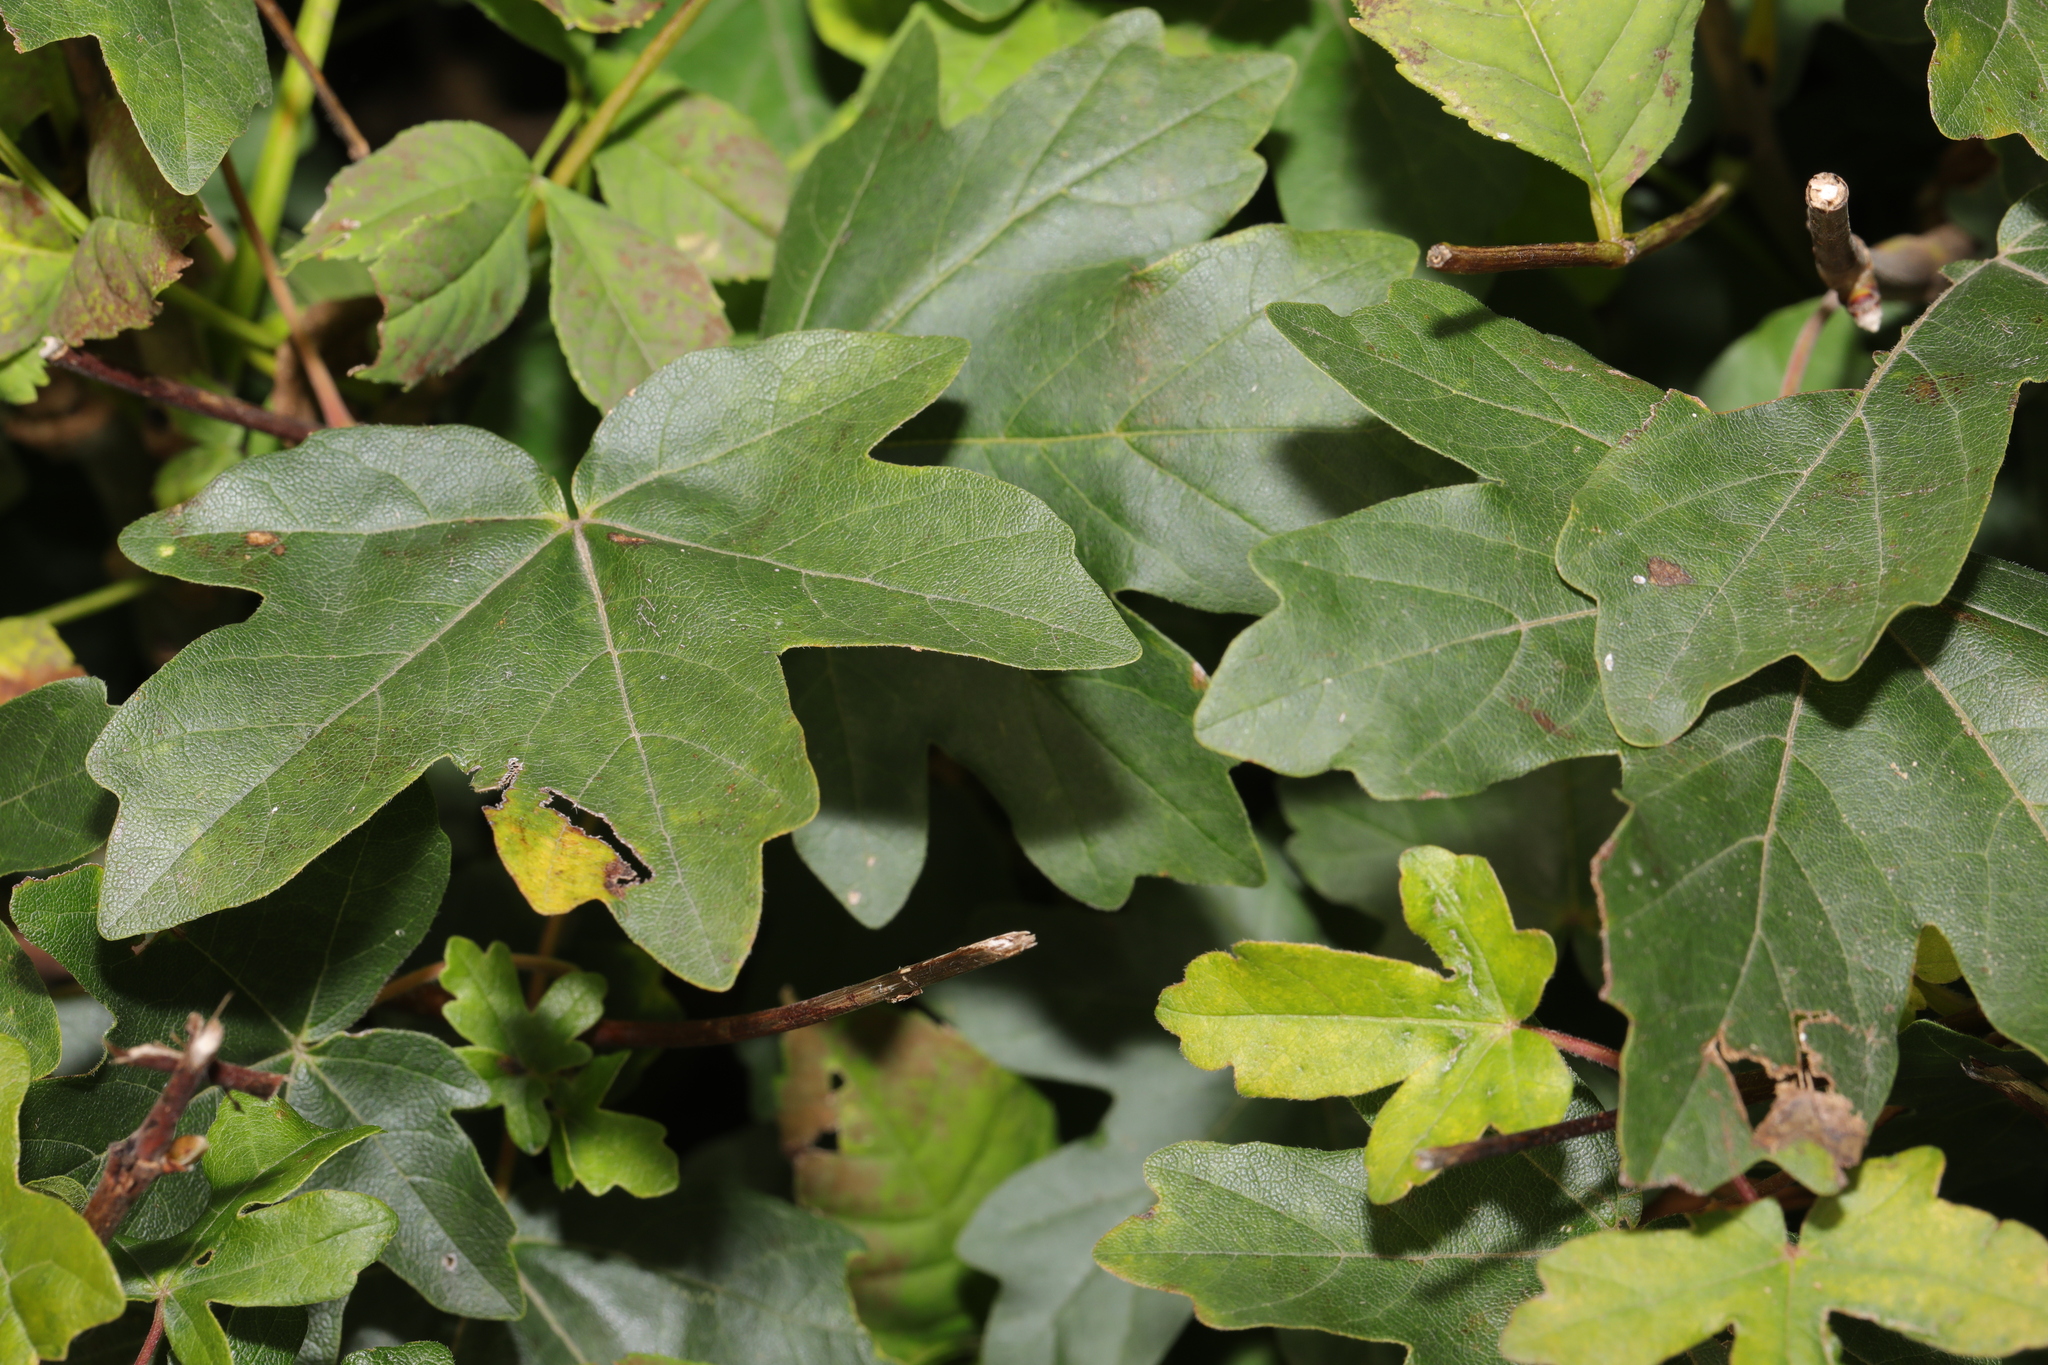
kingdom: Plantae
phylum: Tracheophyta
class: Magnoliopsida
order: Sapindales
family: Sapindaceae
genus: Acer
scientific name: Acer campestre
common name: Field maple
